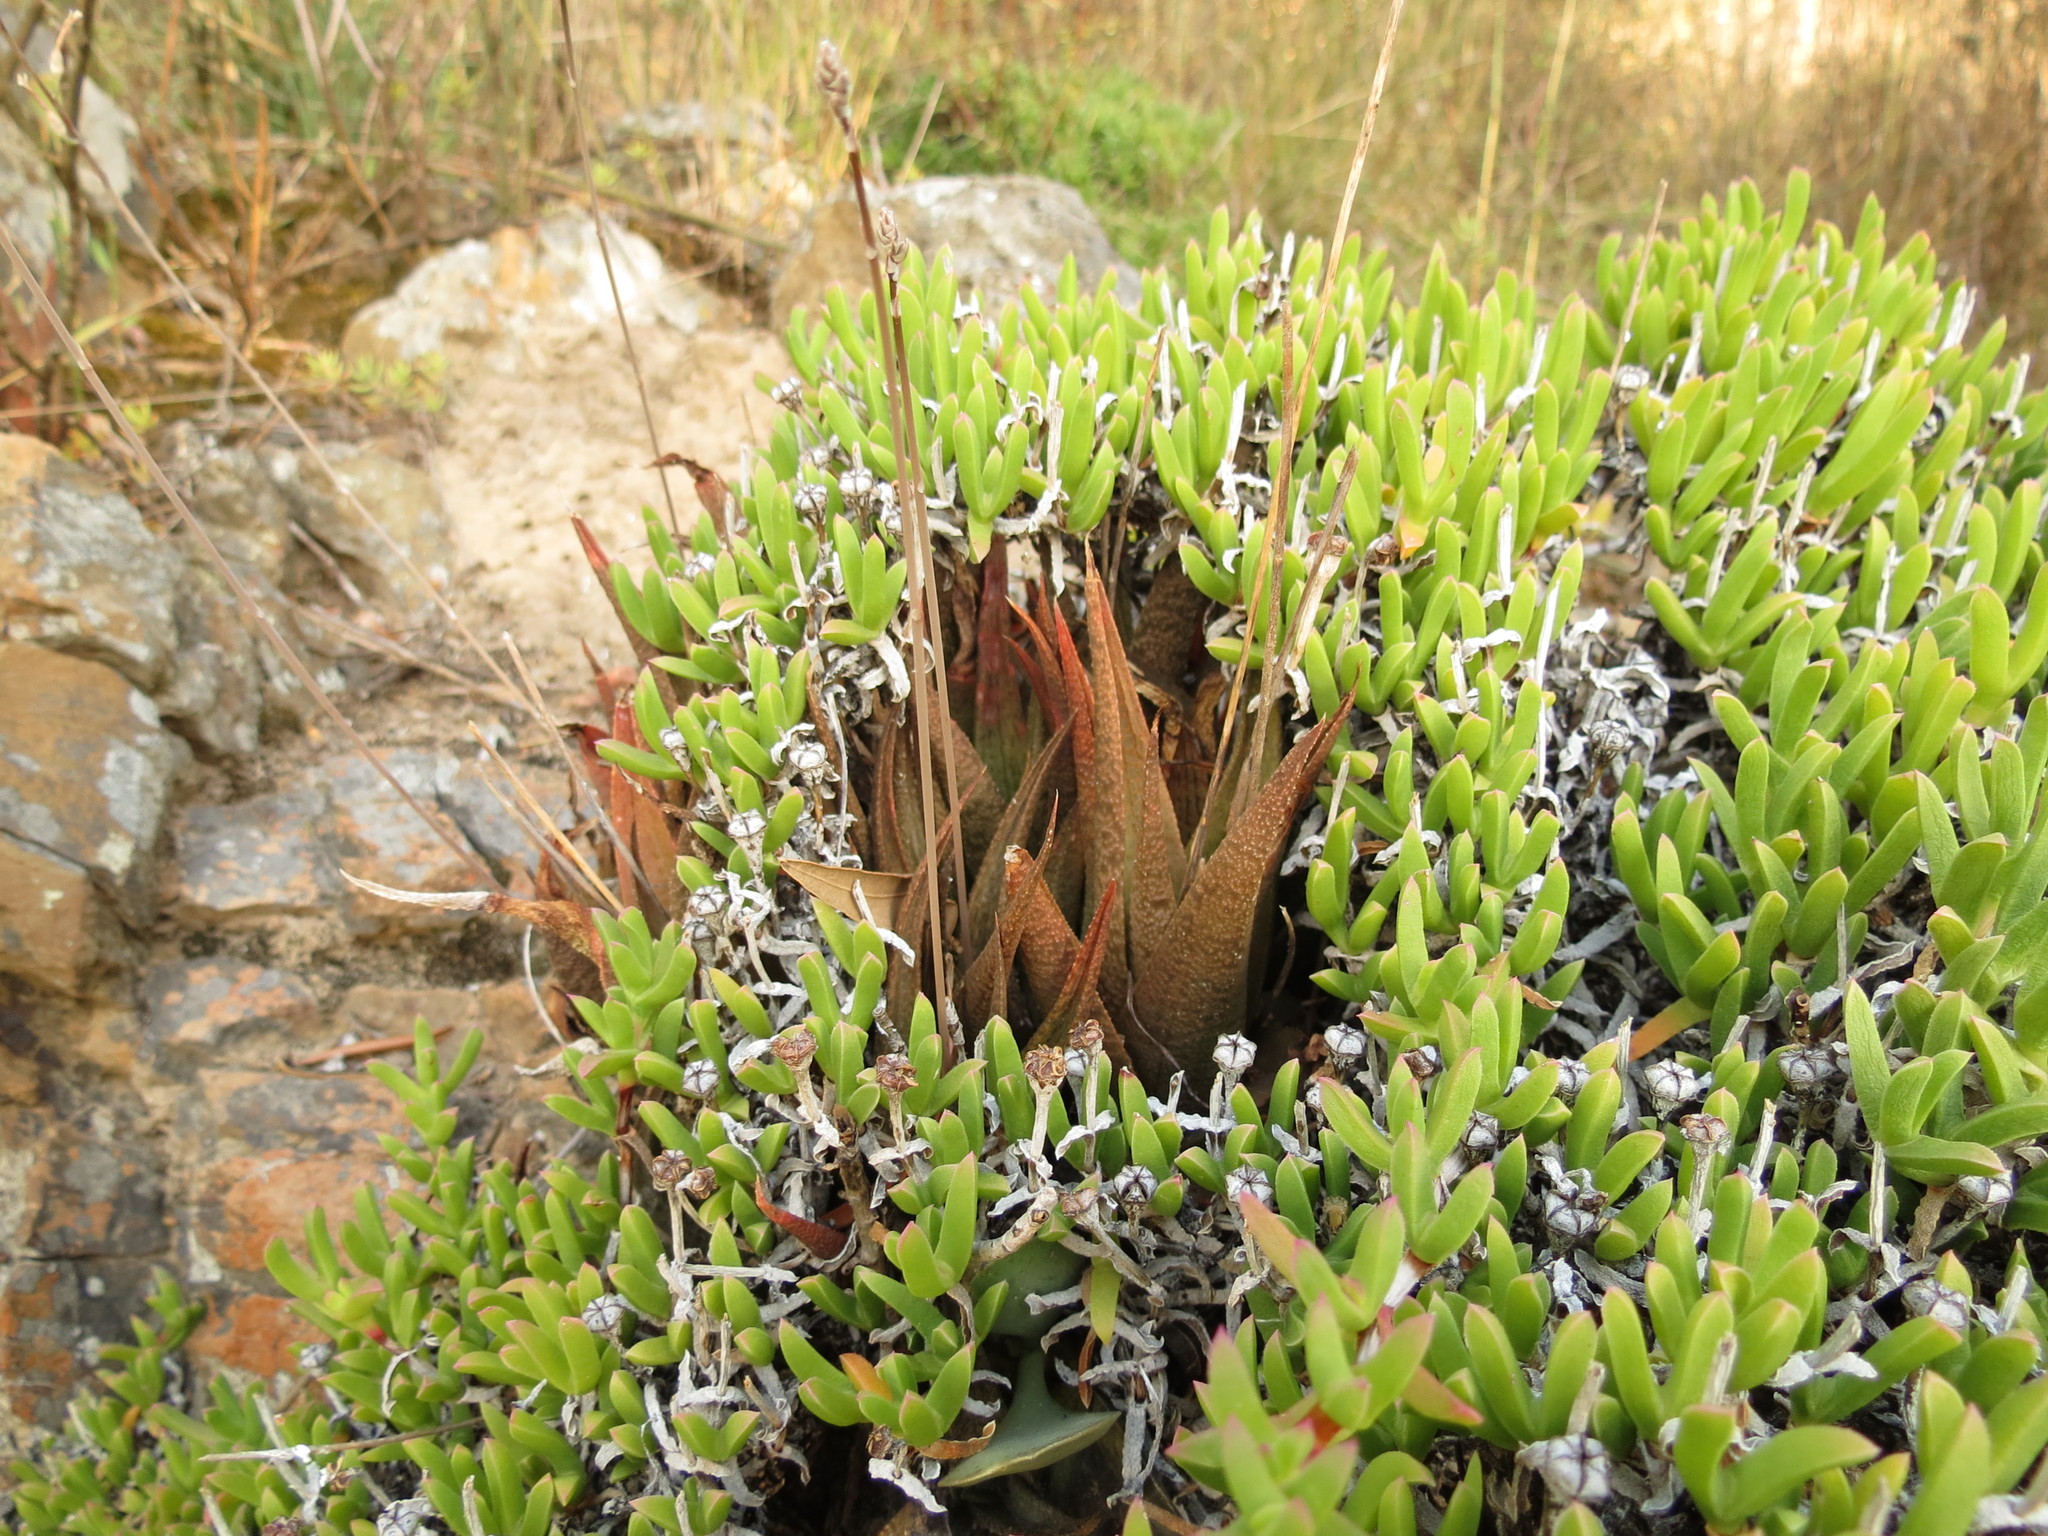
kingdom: Plantae
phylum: Tracheophyta
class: Liliopsida
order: Asparagales
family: Asphodelaceae
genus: Haworthiopsis
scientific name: Haworthiopsis venosa
